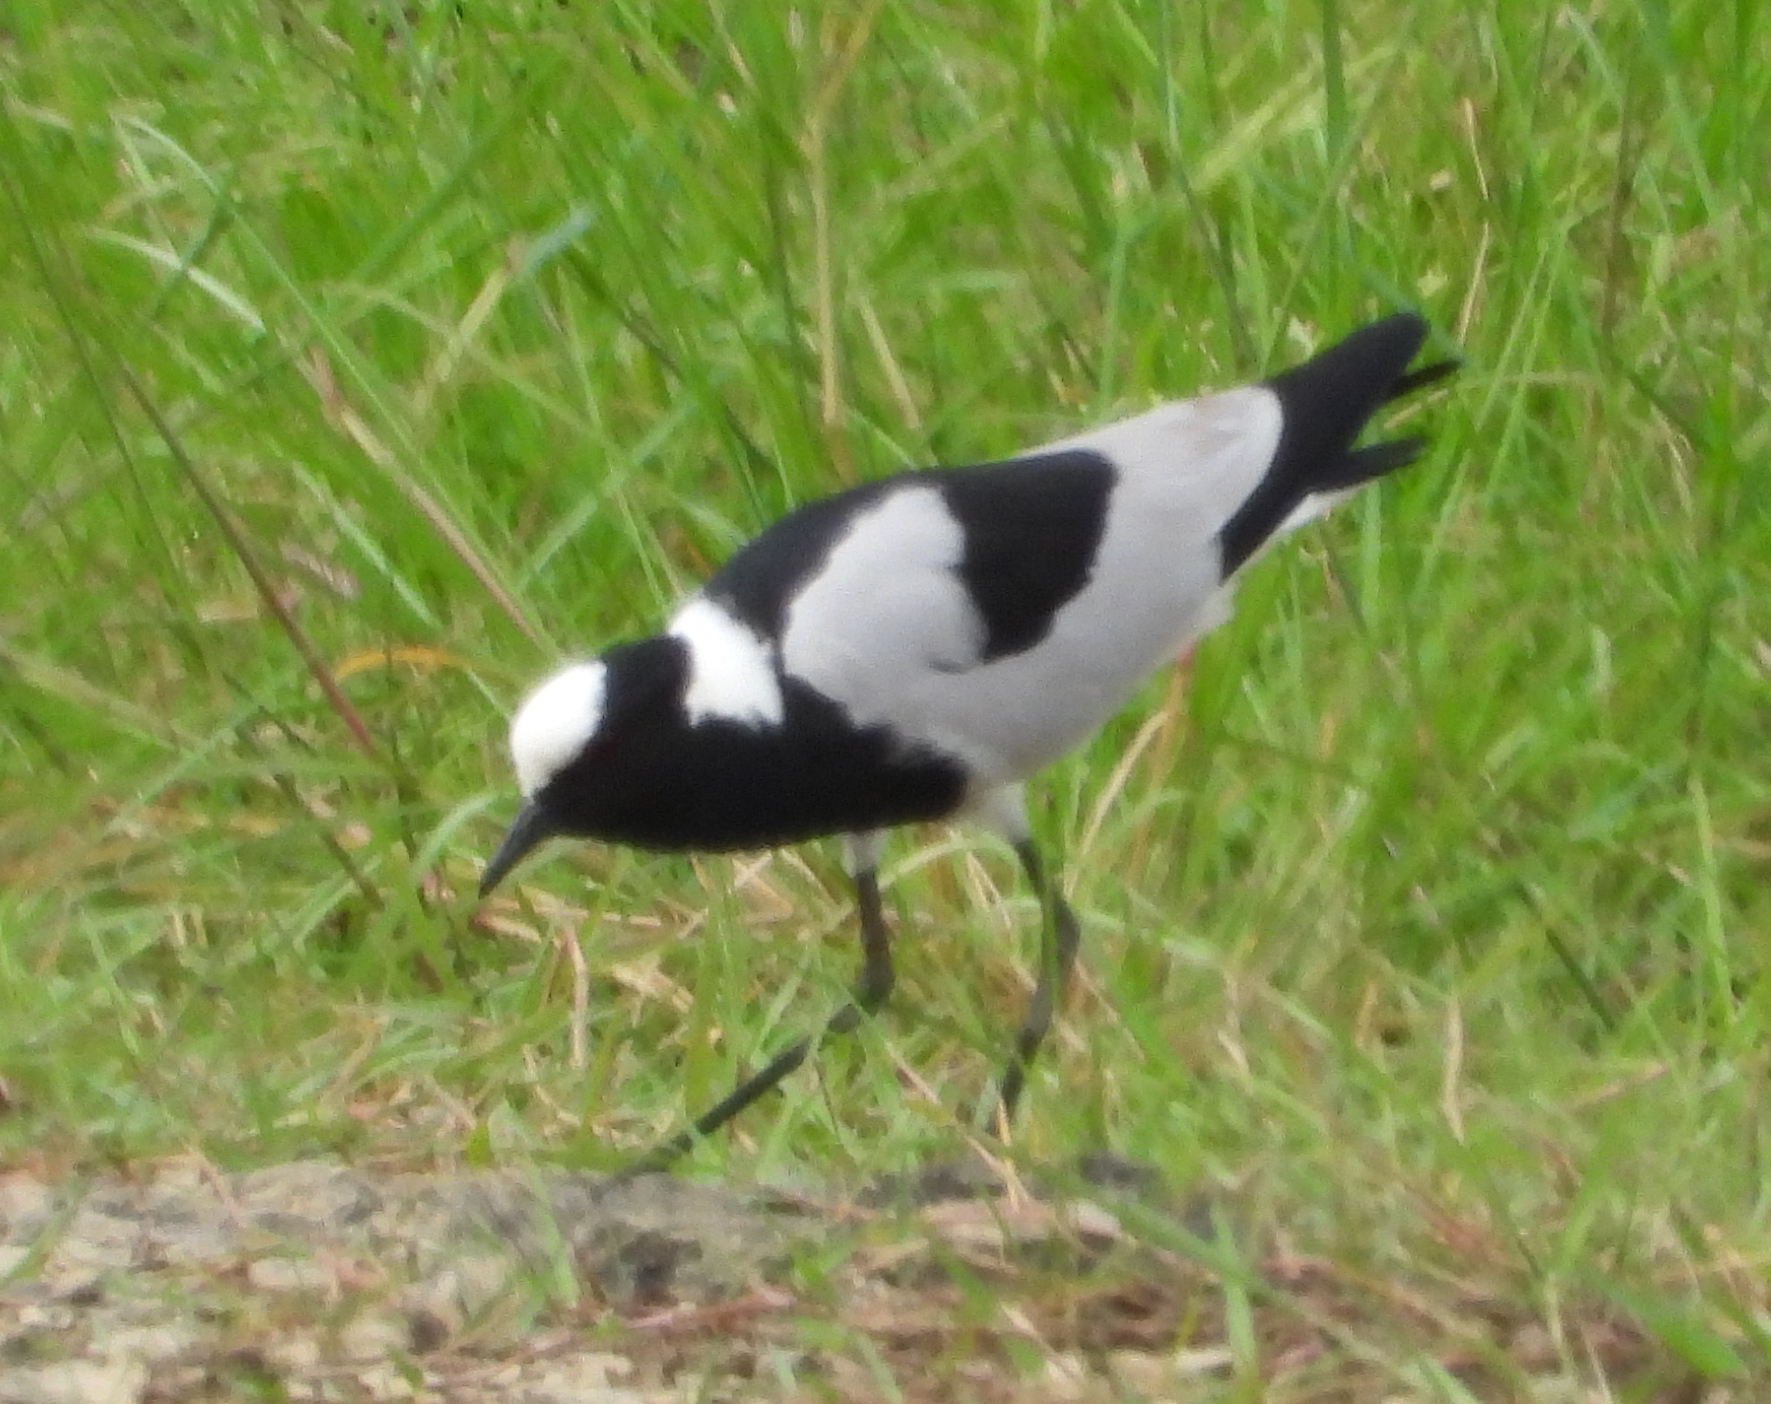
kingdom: Animalia
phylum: Chordata
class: Aves
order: Charadriiformes
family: Charadriidae
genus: Vanellus
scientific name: Vanellus armatus
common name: Blacksmith lapwing
